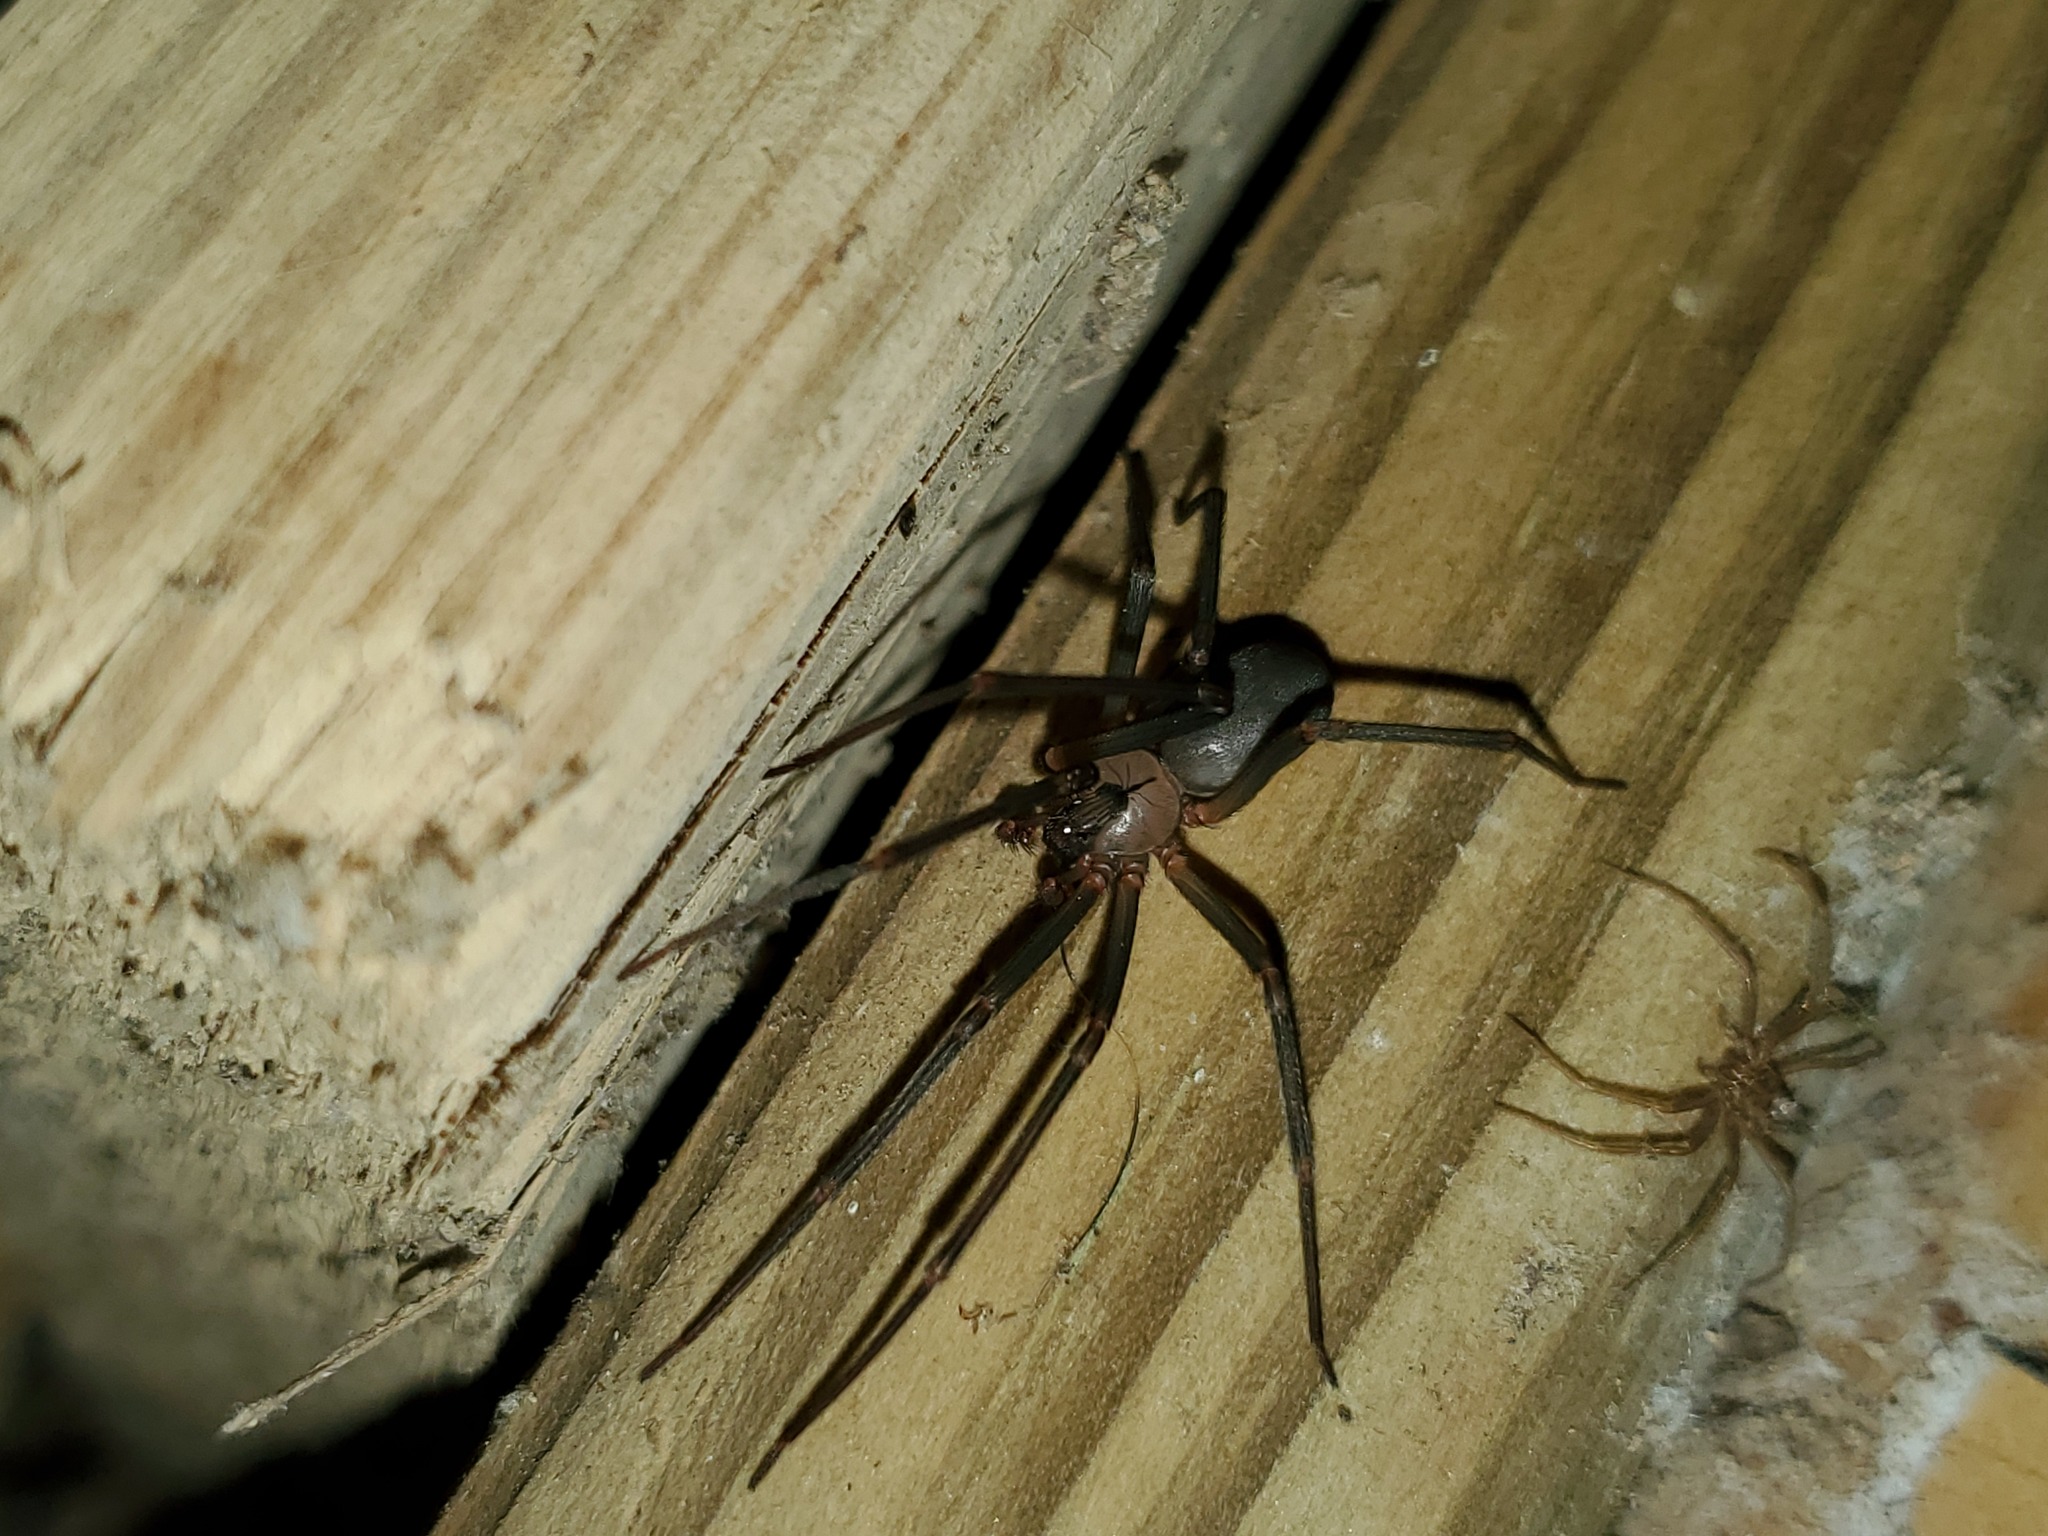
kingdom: Animalia
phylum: Arthropoda
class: Arachnida
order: Araneae
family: Sicariidae
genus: Loxosceles
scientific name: Loxosceles reclusa
